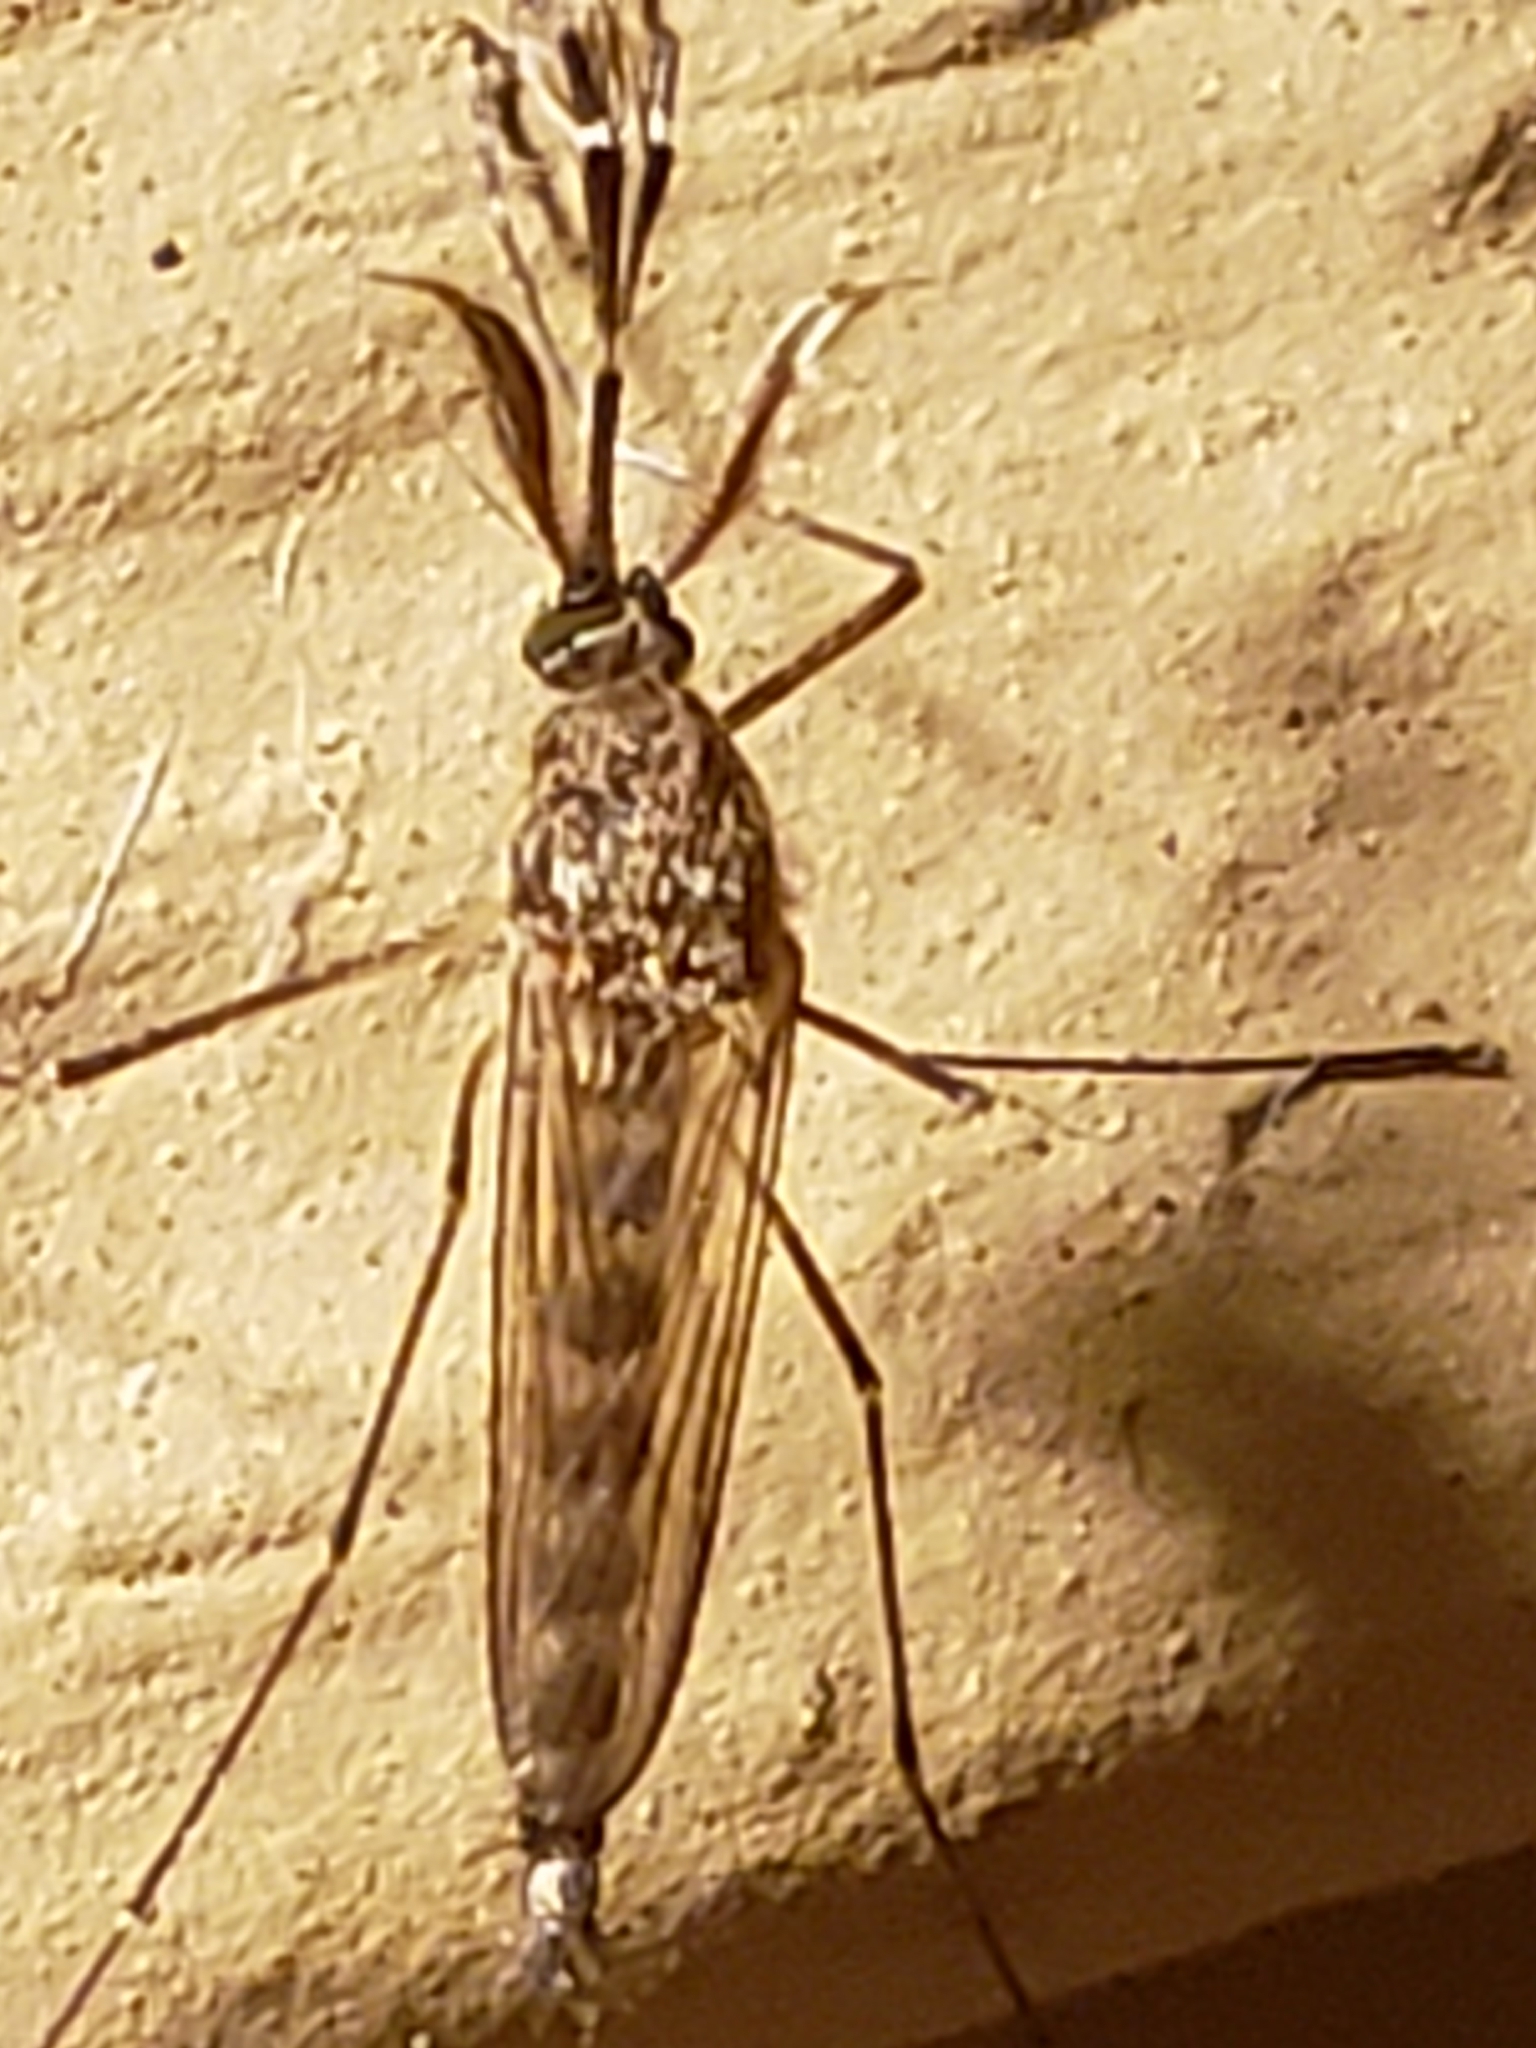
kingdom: Animalia
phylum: Arthropoda
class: Insecta
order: Diptera
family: Culicidae
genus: Aedes
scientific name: Aedes vexans
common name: Inland floodwater mosquito
